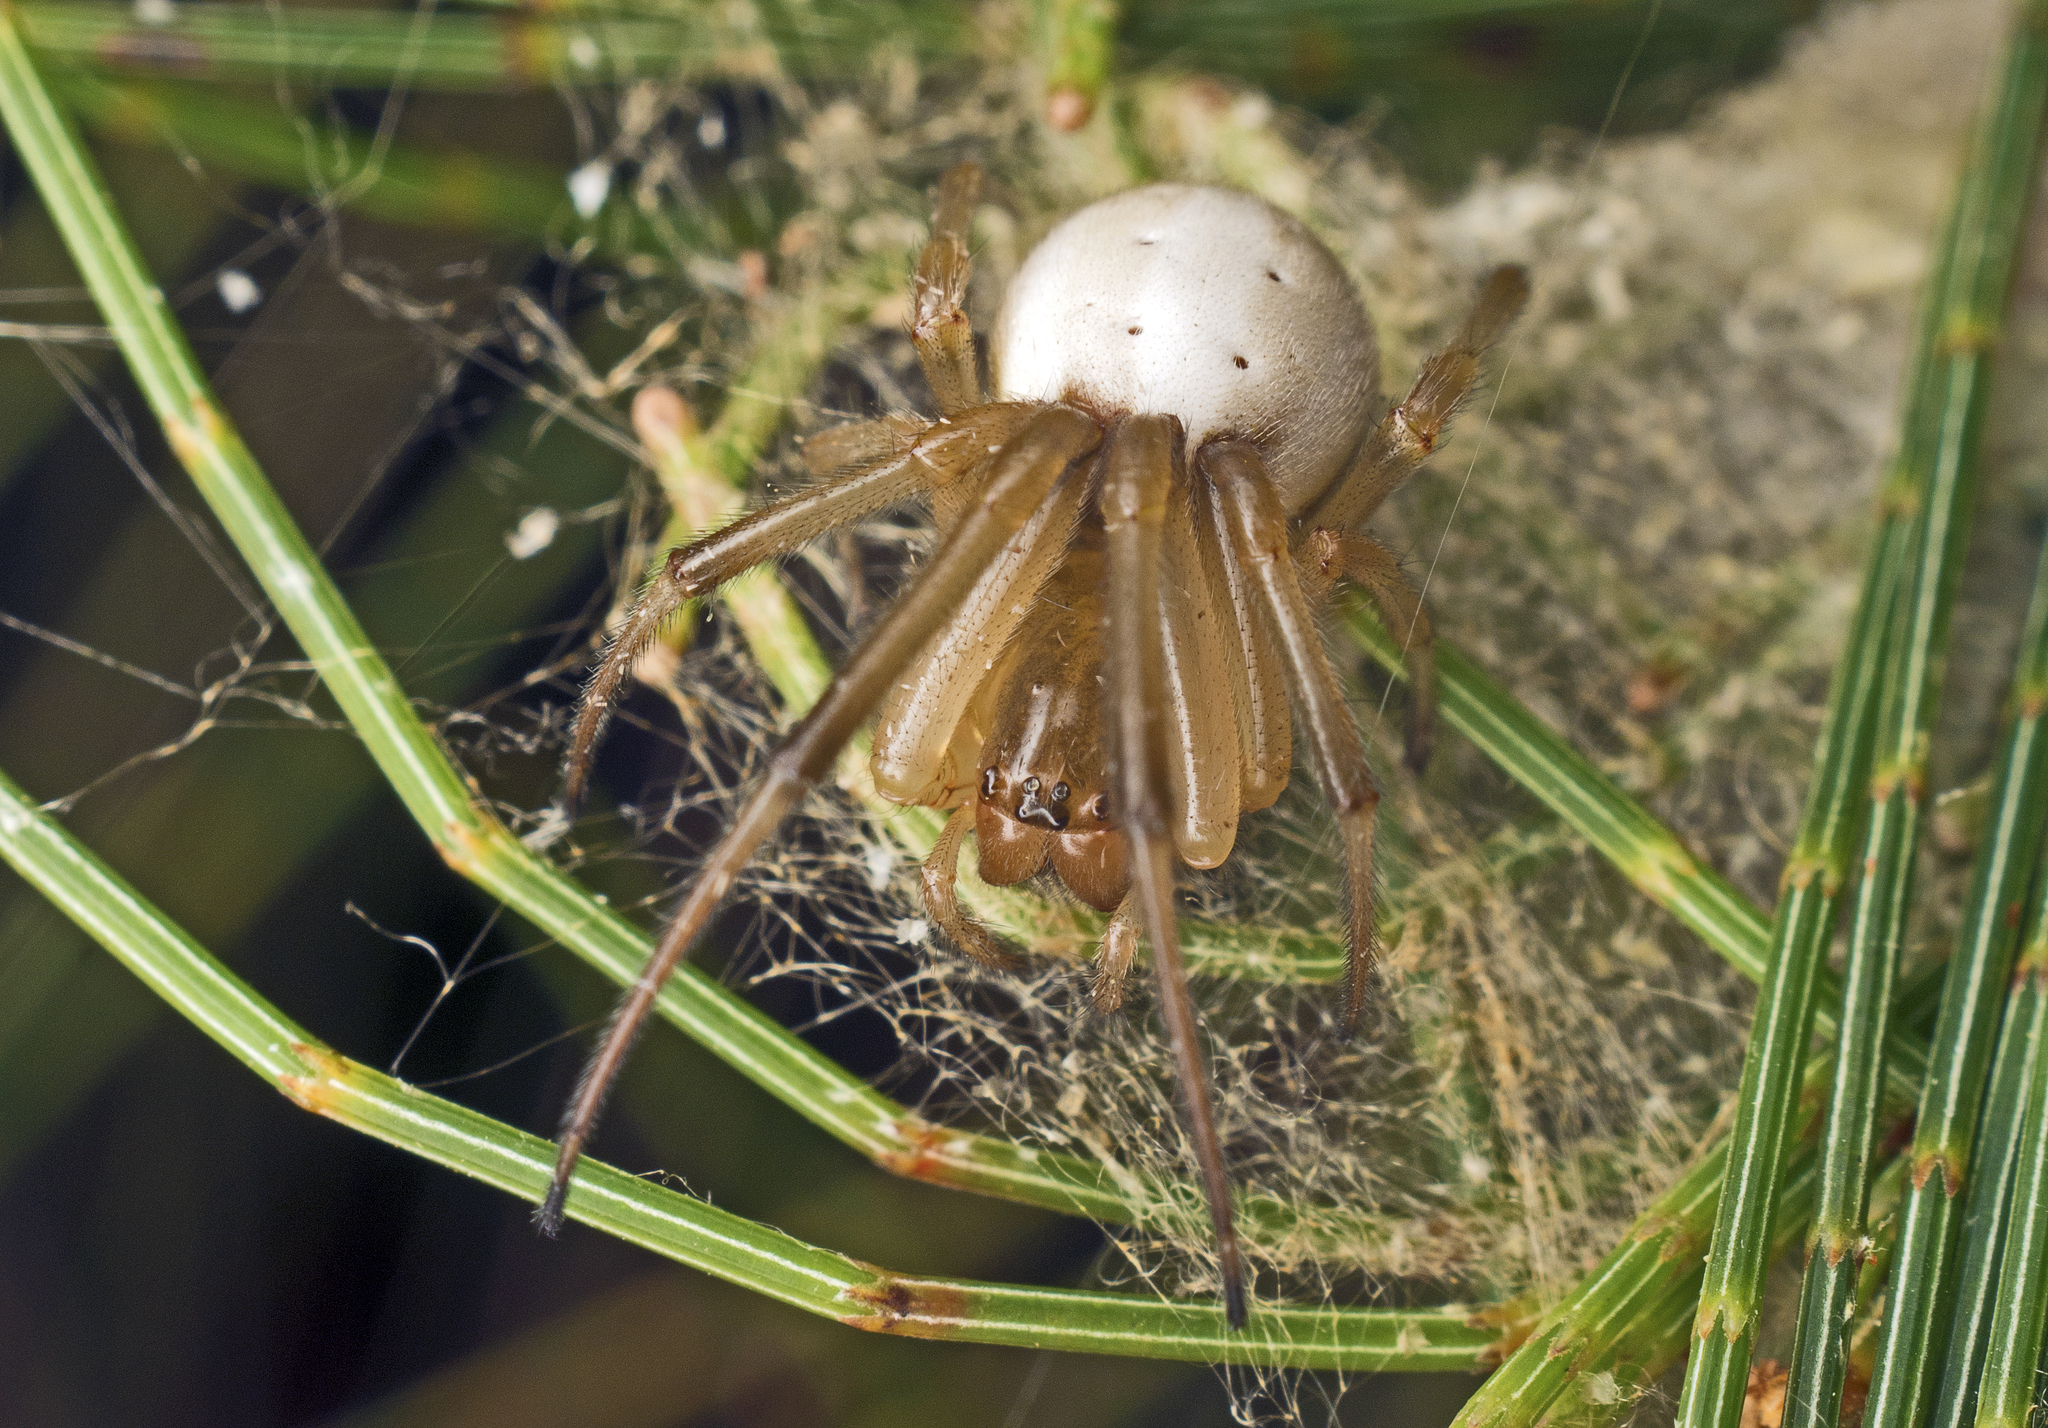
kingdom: Animalia
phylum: Arthropoda
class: Arachnida
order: Araneae
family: Araneidae
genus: Deliochus
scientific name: Deliochus idoneus
